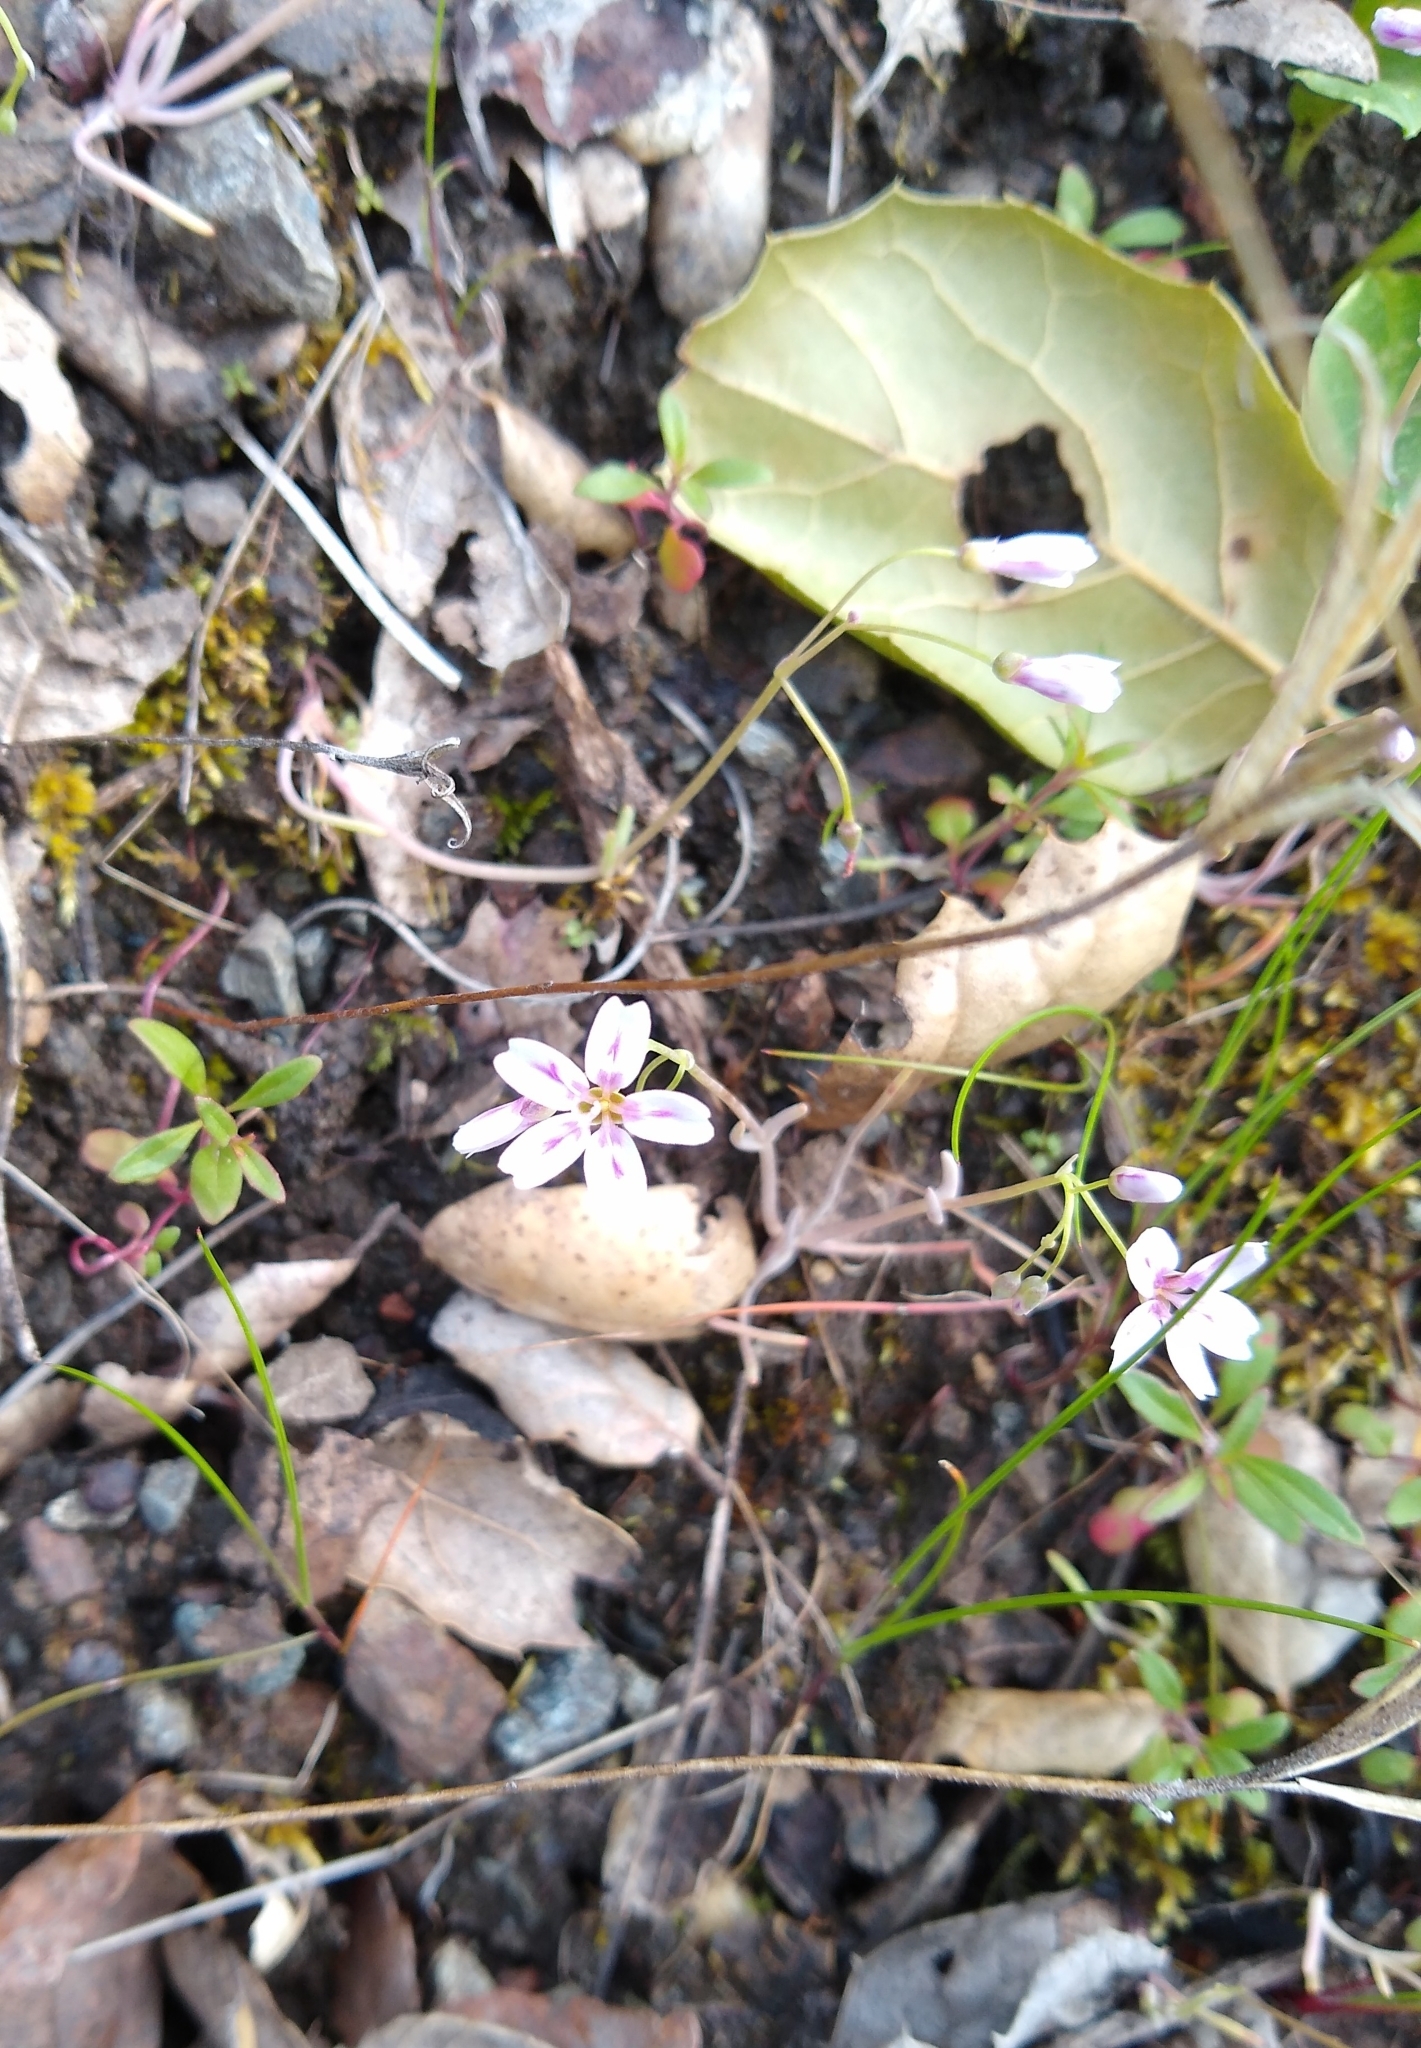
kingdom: Plantae
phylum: Tracheophyta
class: Magnoliopsida
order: Caryophyllales
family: Montiaceae
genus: Claytonia
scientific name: Claytonia gypsophiloides
